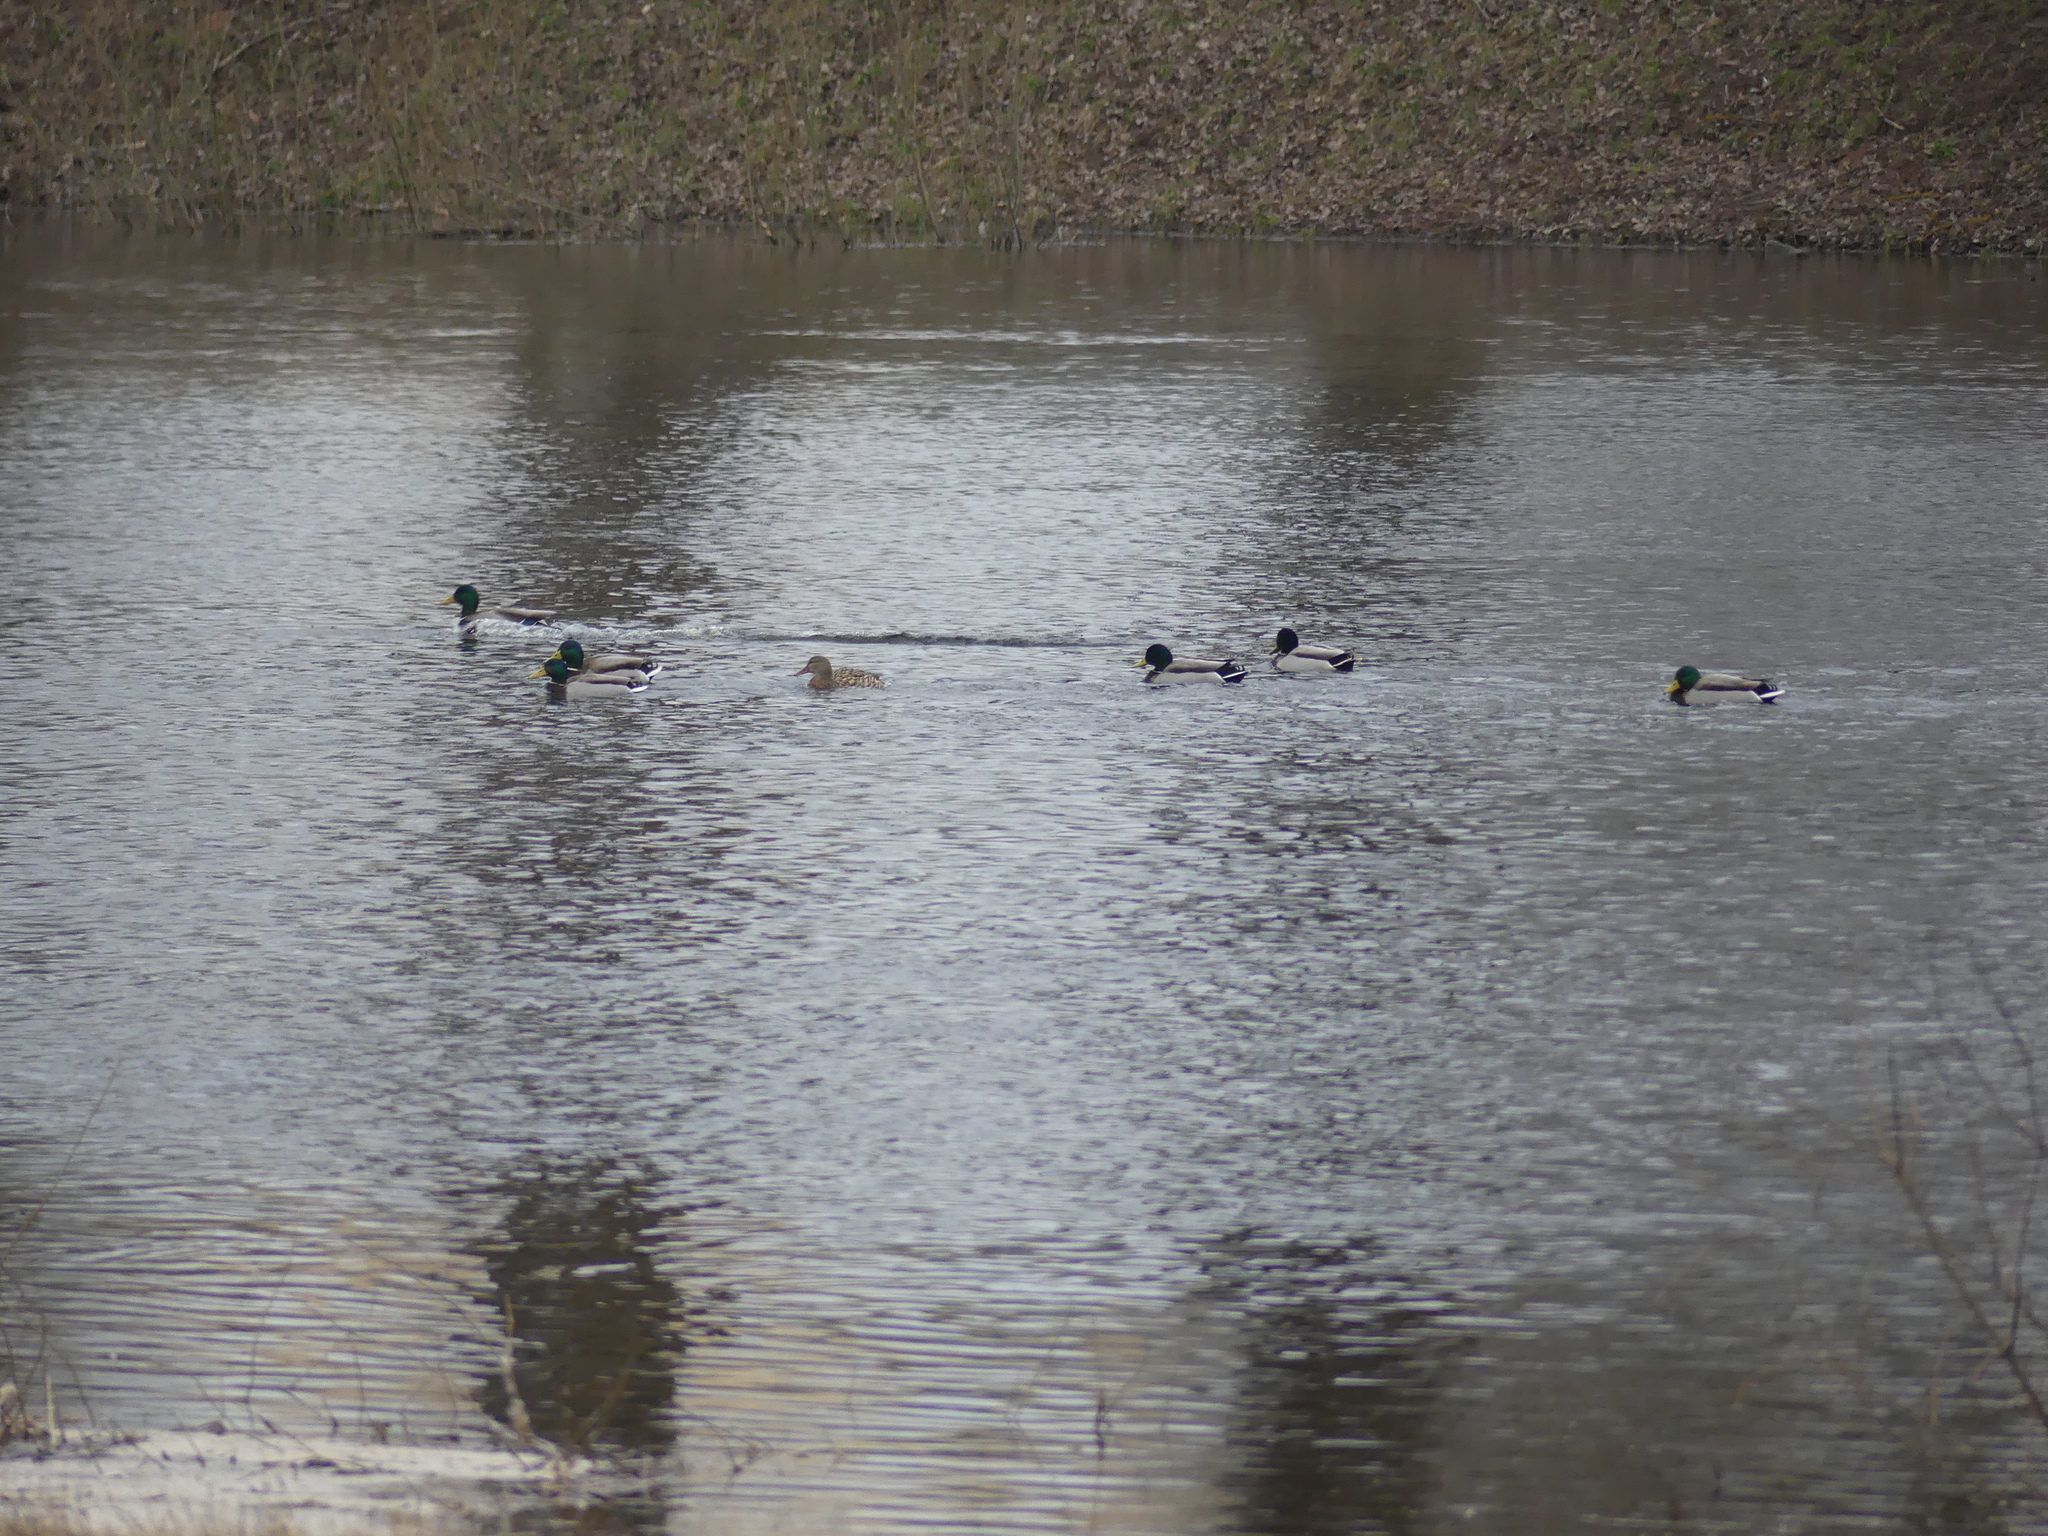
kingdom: Animalia
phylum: Chordata
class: Aves
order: Anseriformes
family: Anatidae
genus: Anas
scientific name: Anas platyrhynchos
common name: Mallard
